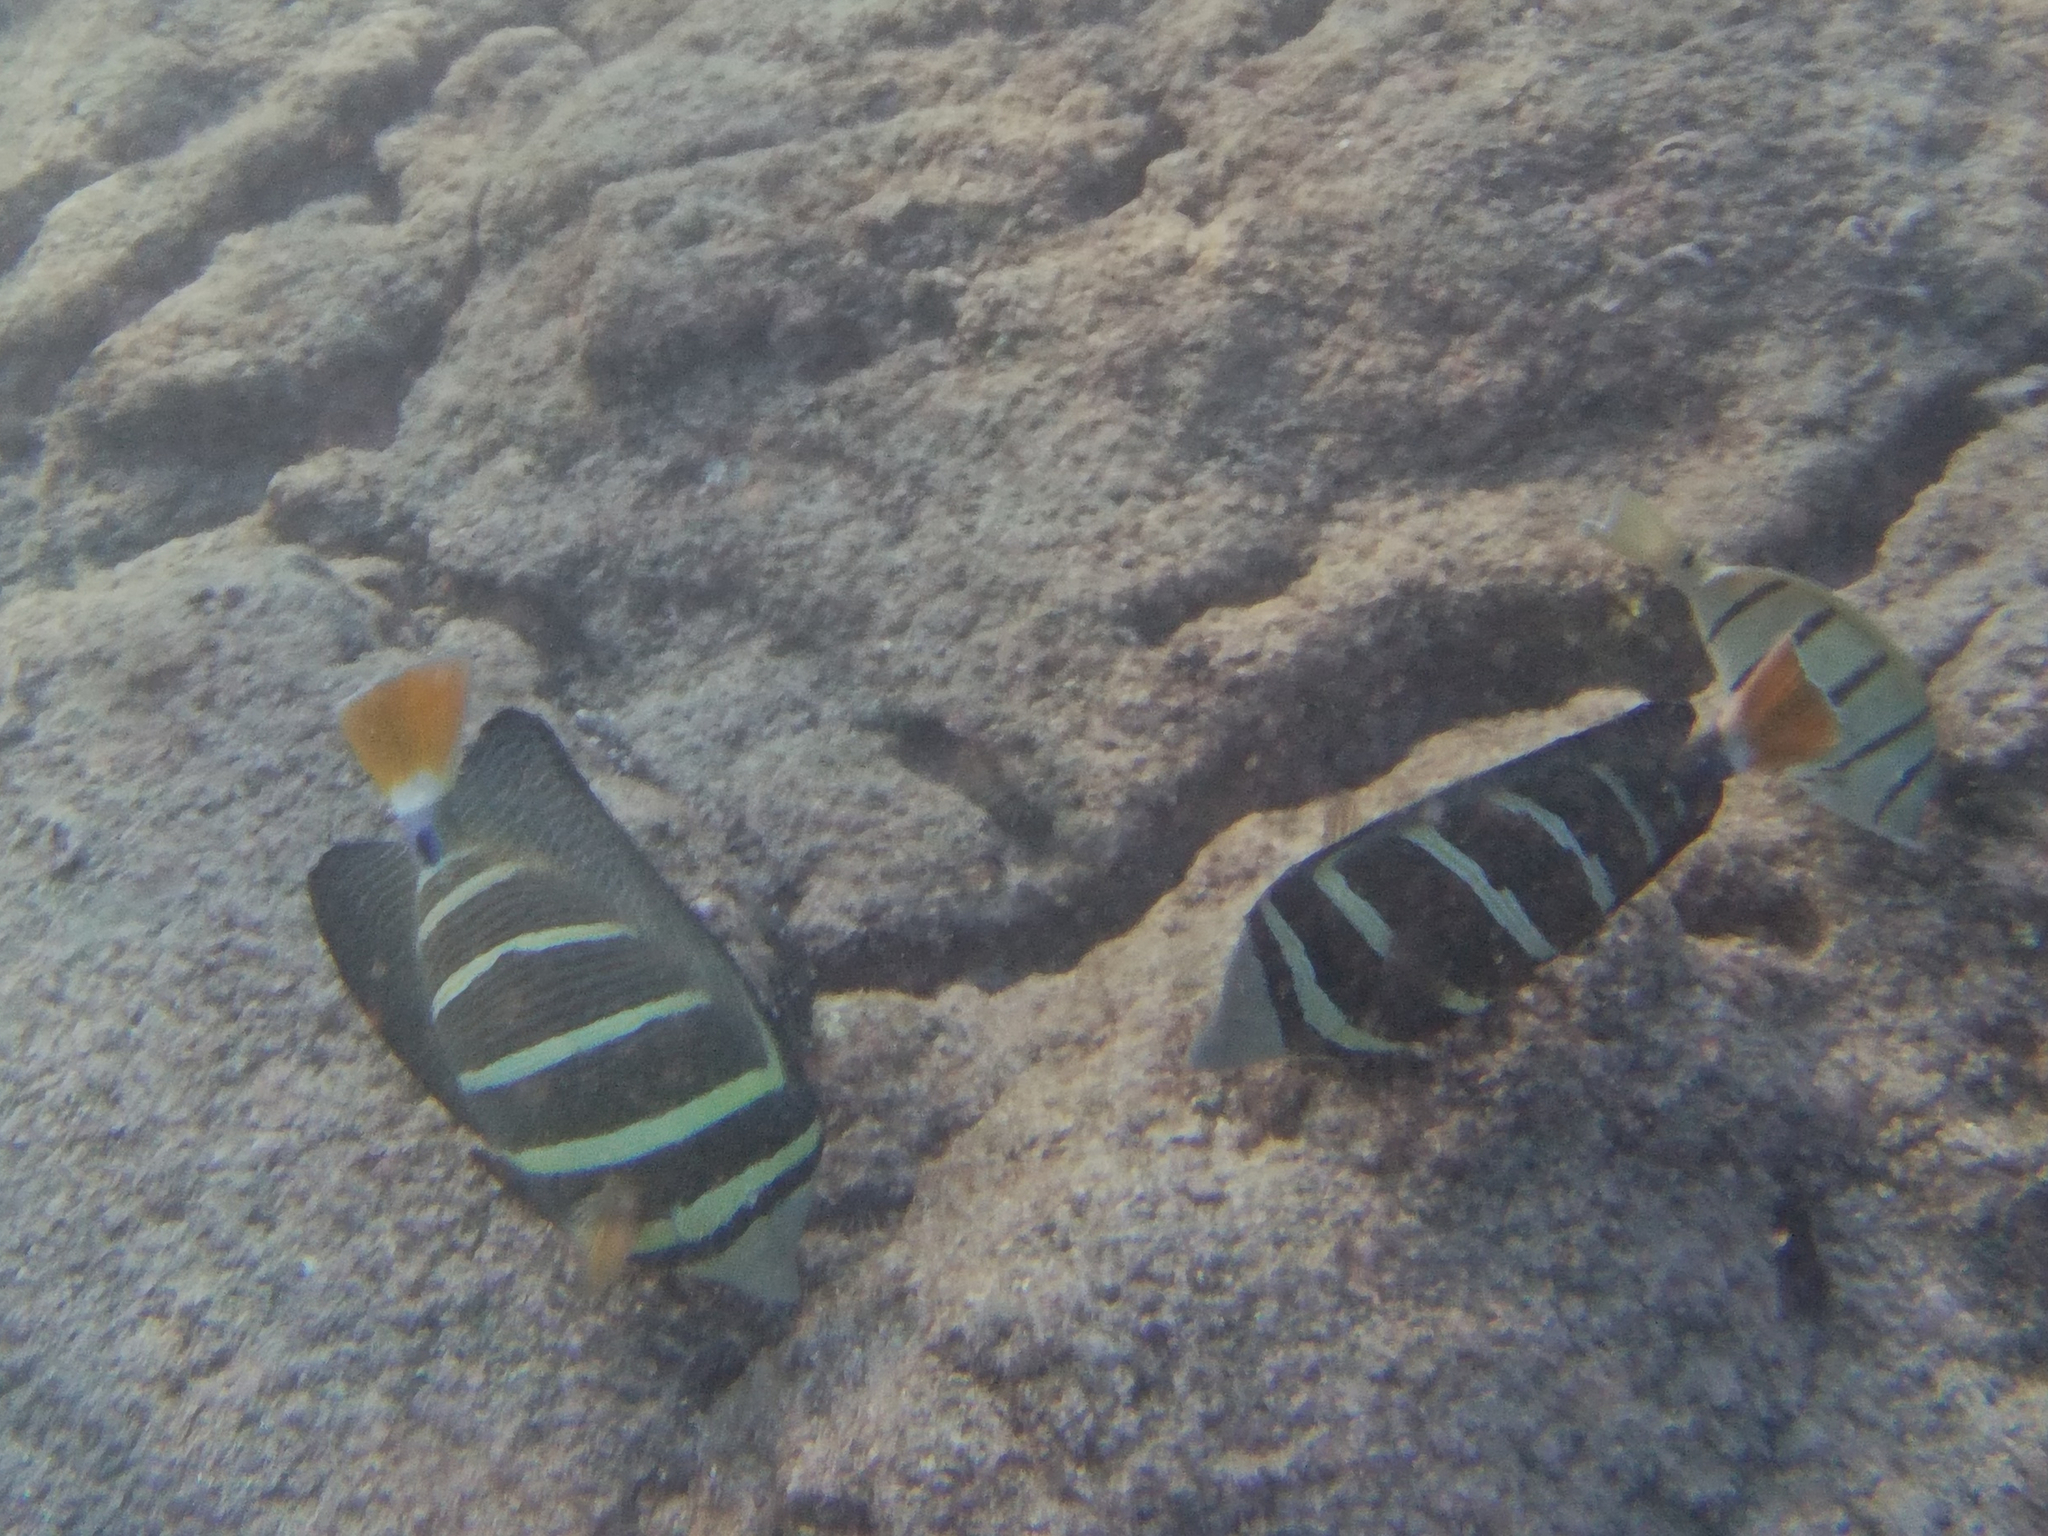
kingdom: Animalia
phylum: Chordata
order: Perciformes
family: Acanthuridae
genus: Zebrasoma
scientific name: Zebrasoma veliferum
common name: Sailfin surgeonfish
